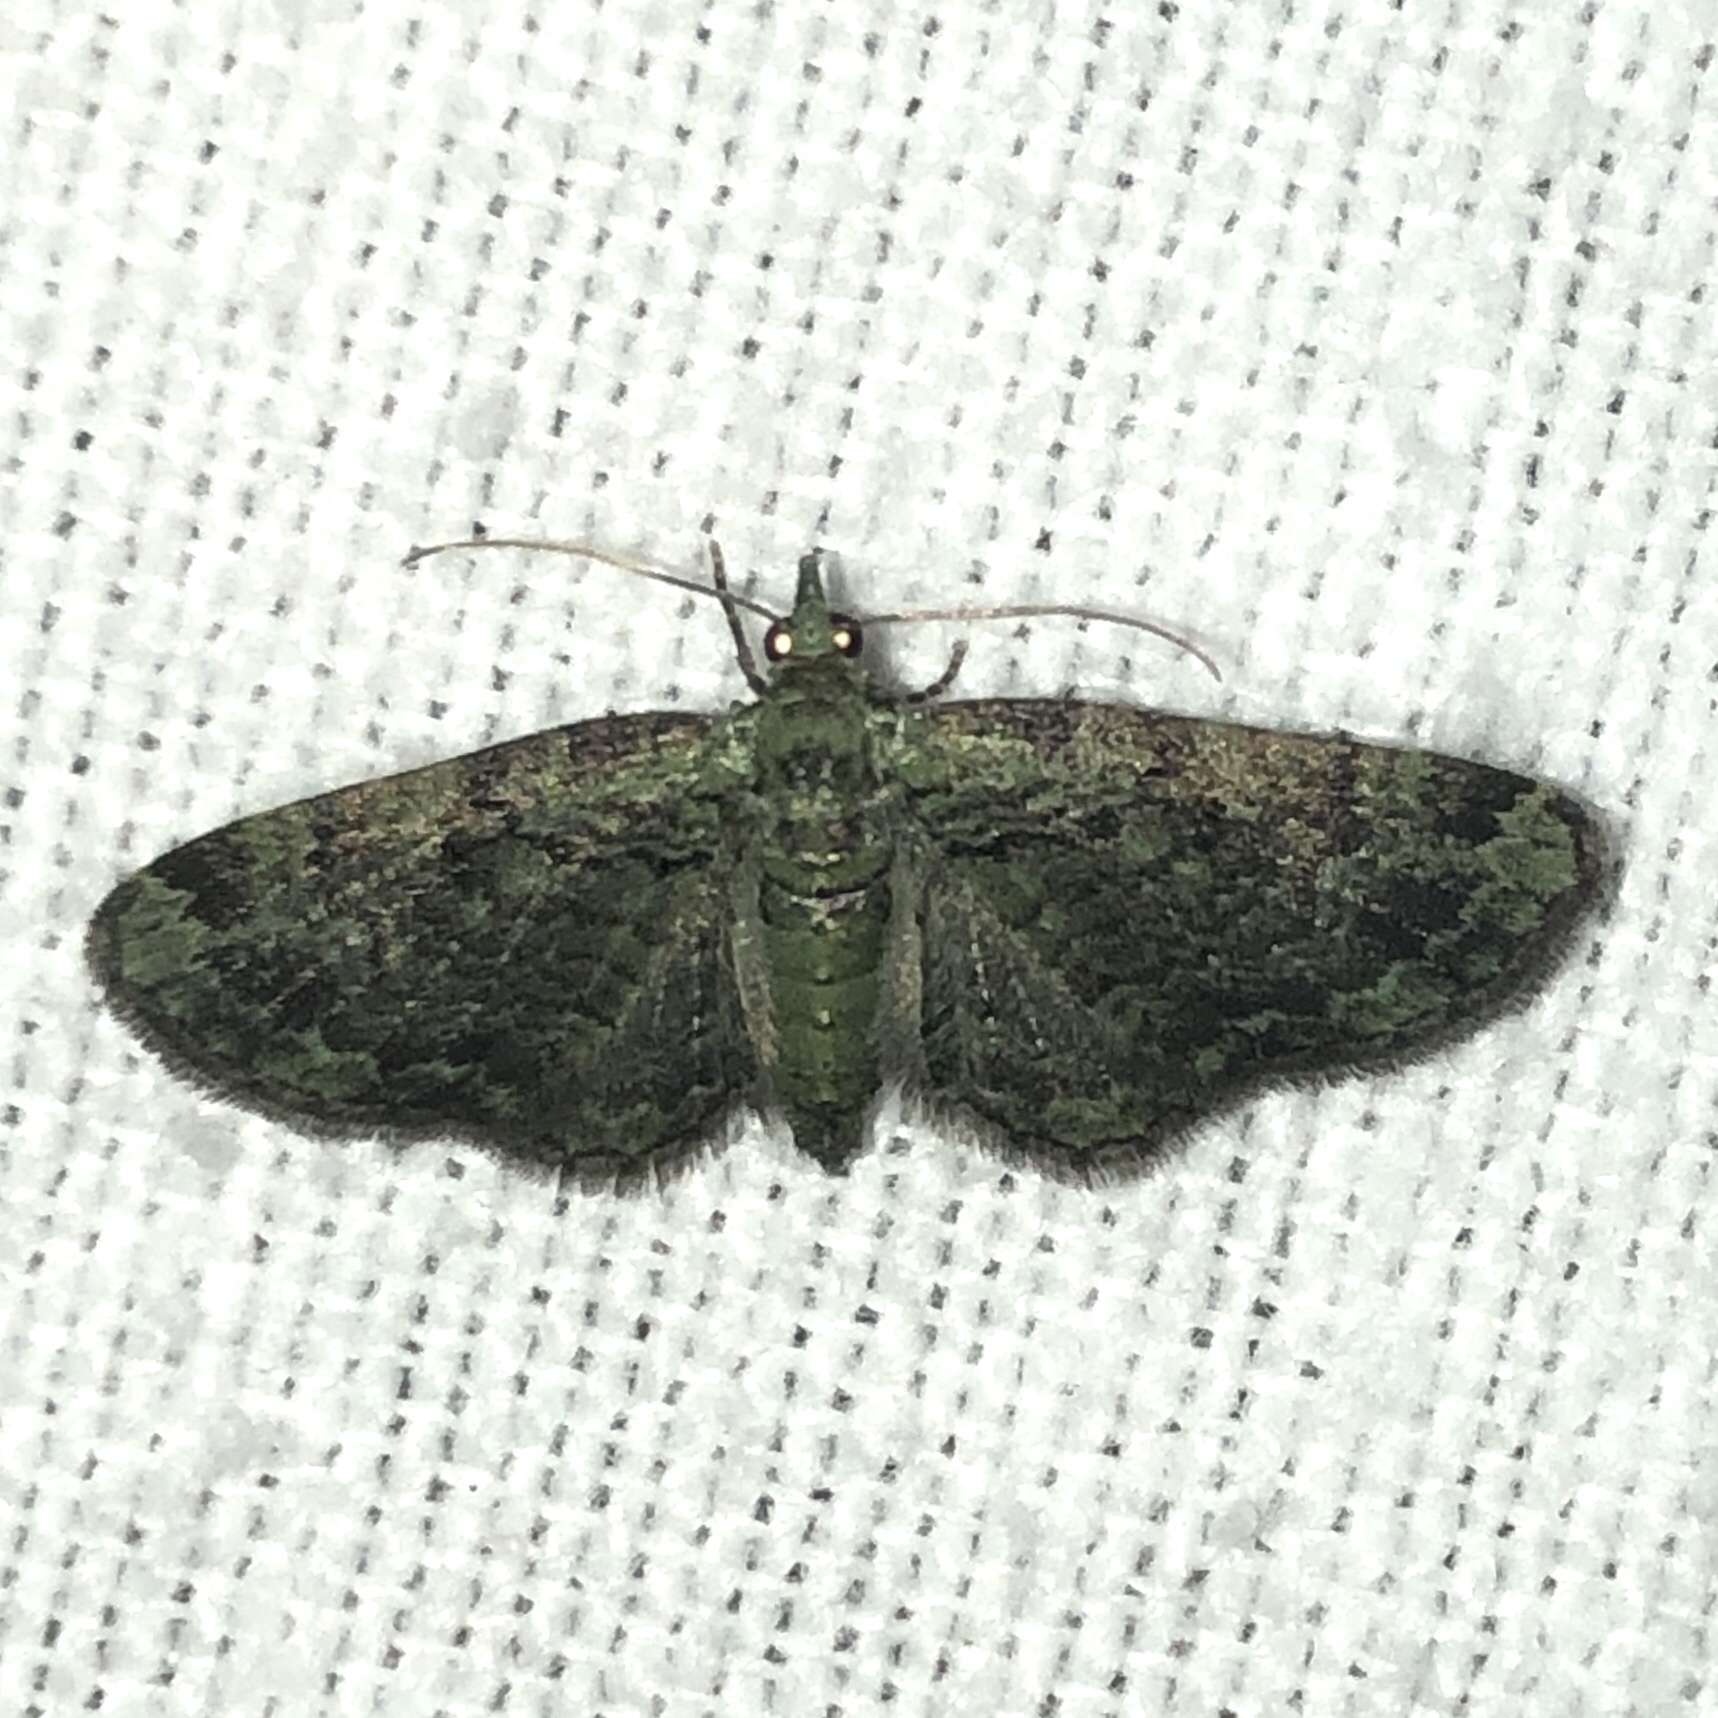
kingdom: Animalia
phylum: Arthropoda
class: Insecta
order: Lepidoptera
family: Geometridae
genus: Pasiphila
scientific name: Pasiphila rectangulata
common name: Green pug
